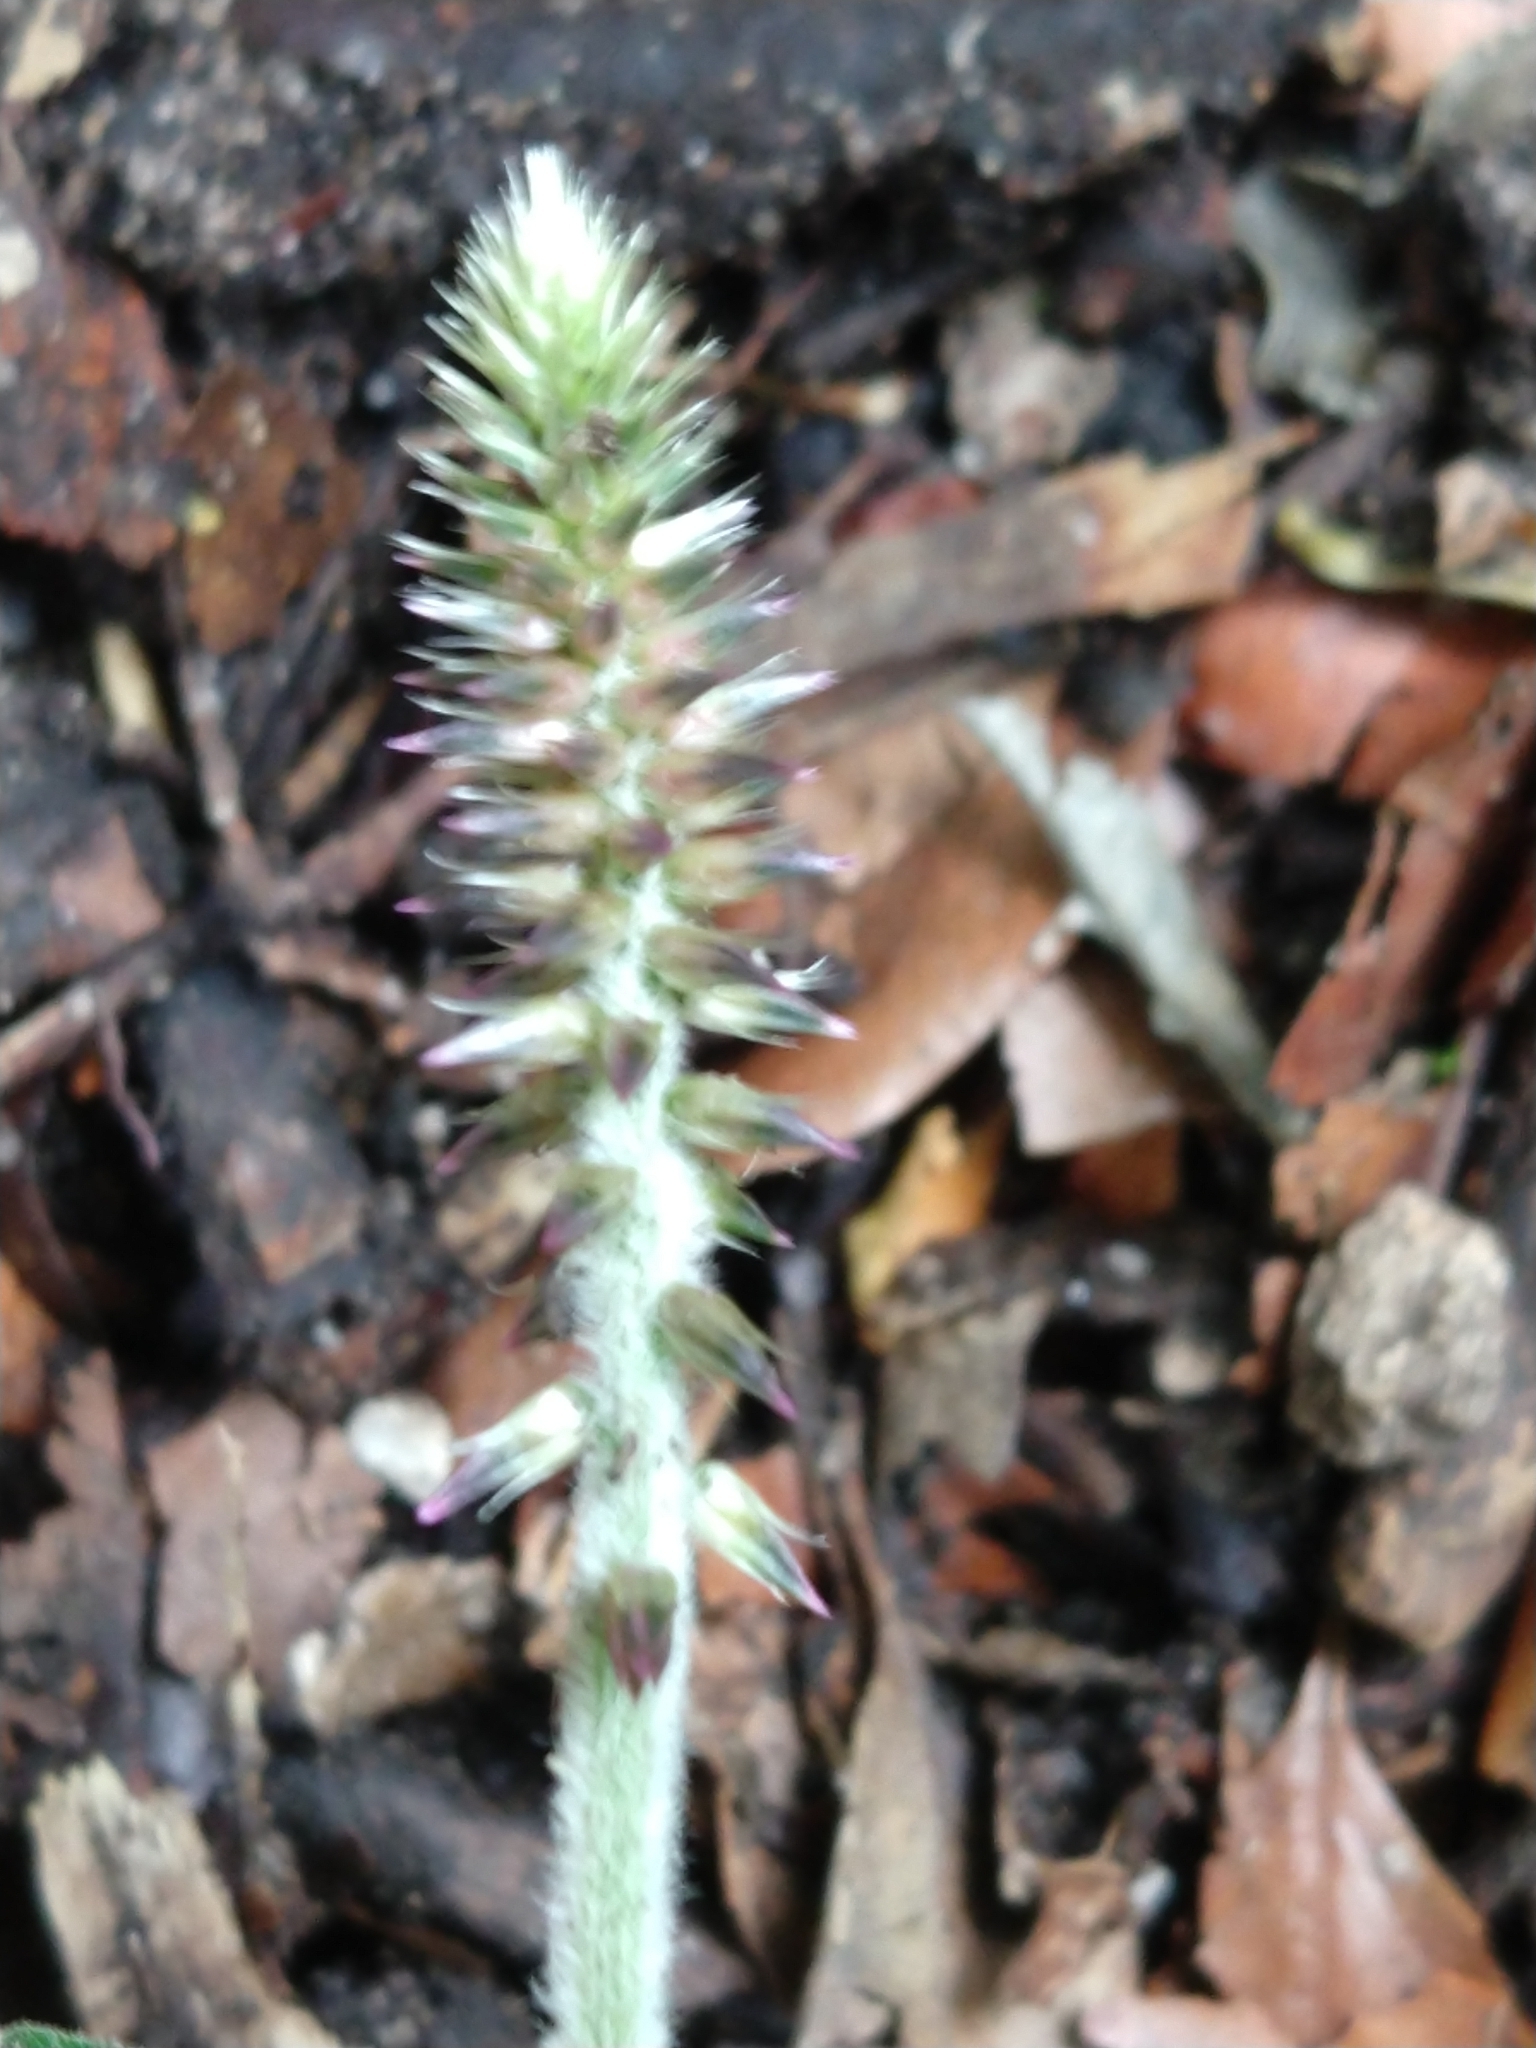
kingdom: Plantae
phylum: Tracheophyta
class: Magnoliopsida
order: Caryophyllales
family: Amaranthaceae
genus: Achyranthes
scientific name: Achyranthes aspera
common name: Devil's horsewhip
